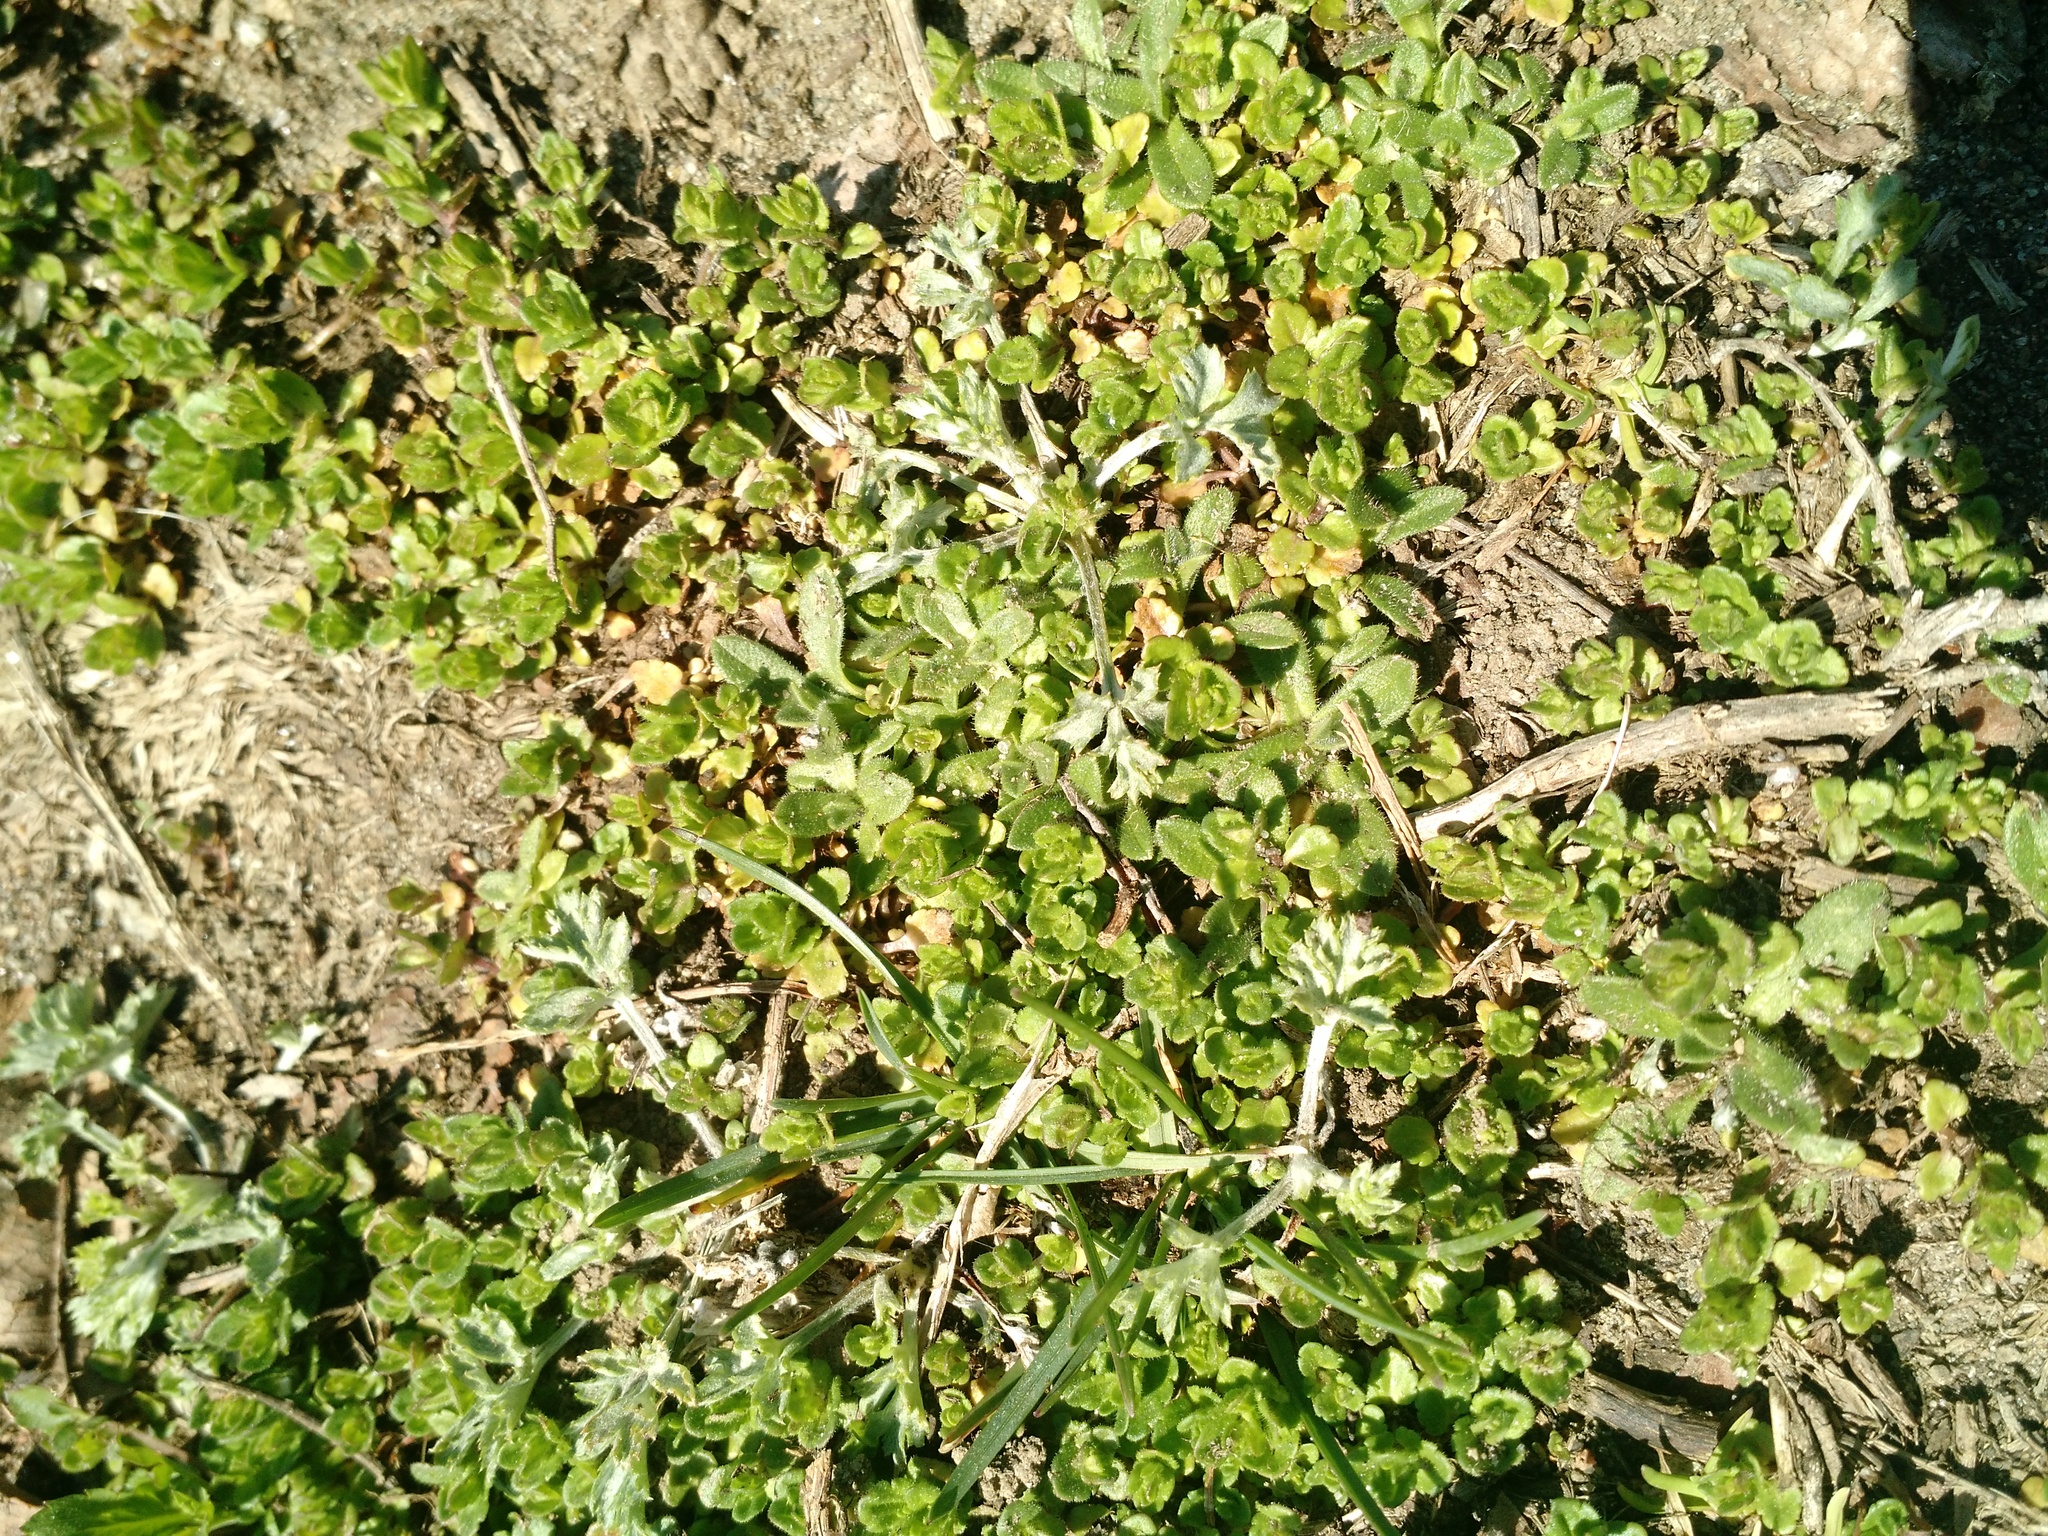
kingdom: Plantae
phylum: Tracheophyta
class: Magnoliopsida
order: Brassicales
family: Brassicaceae
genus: Draba
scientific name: Draba verna
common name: Spring draba
